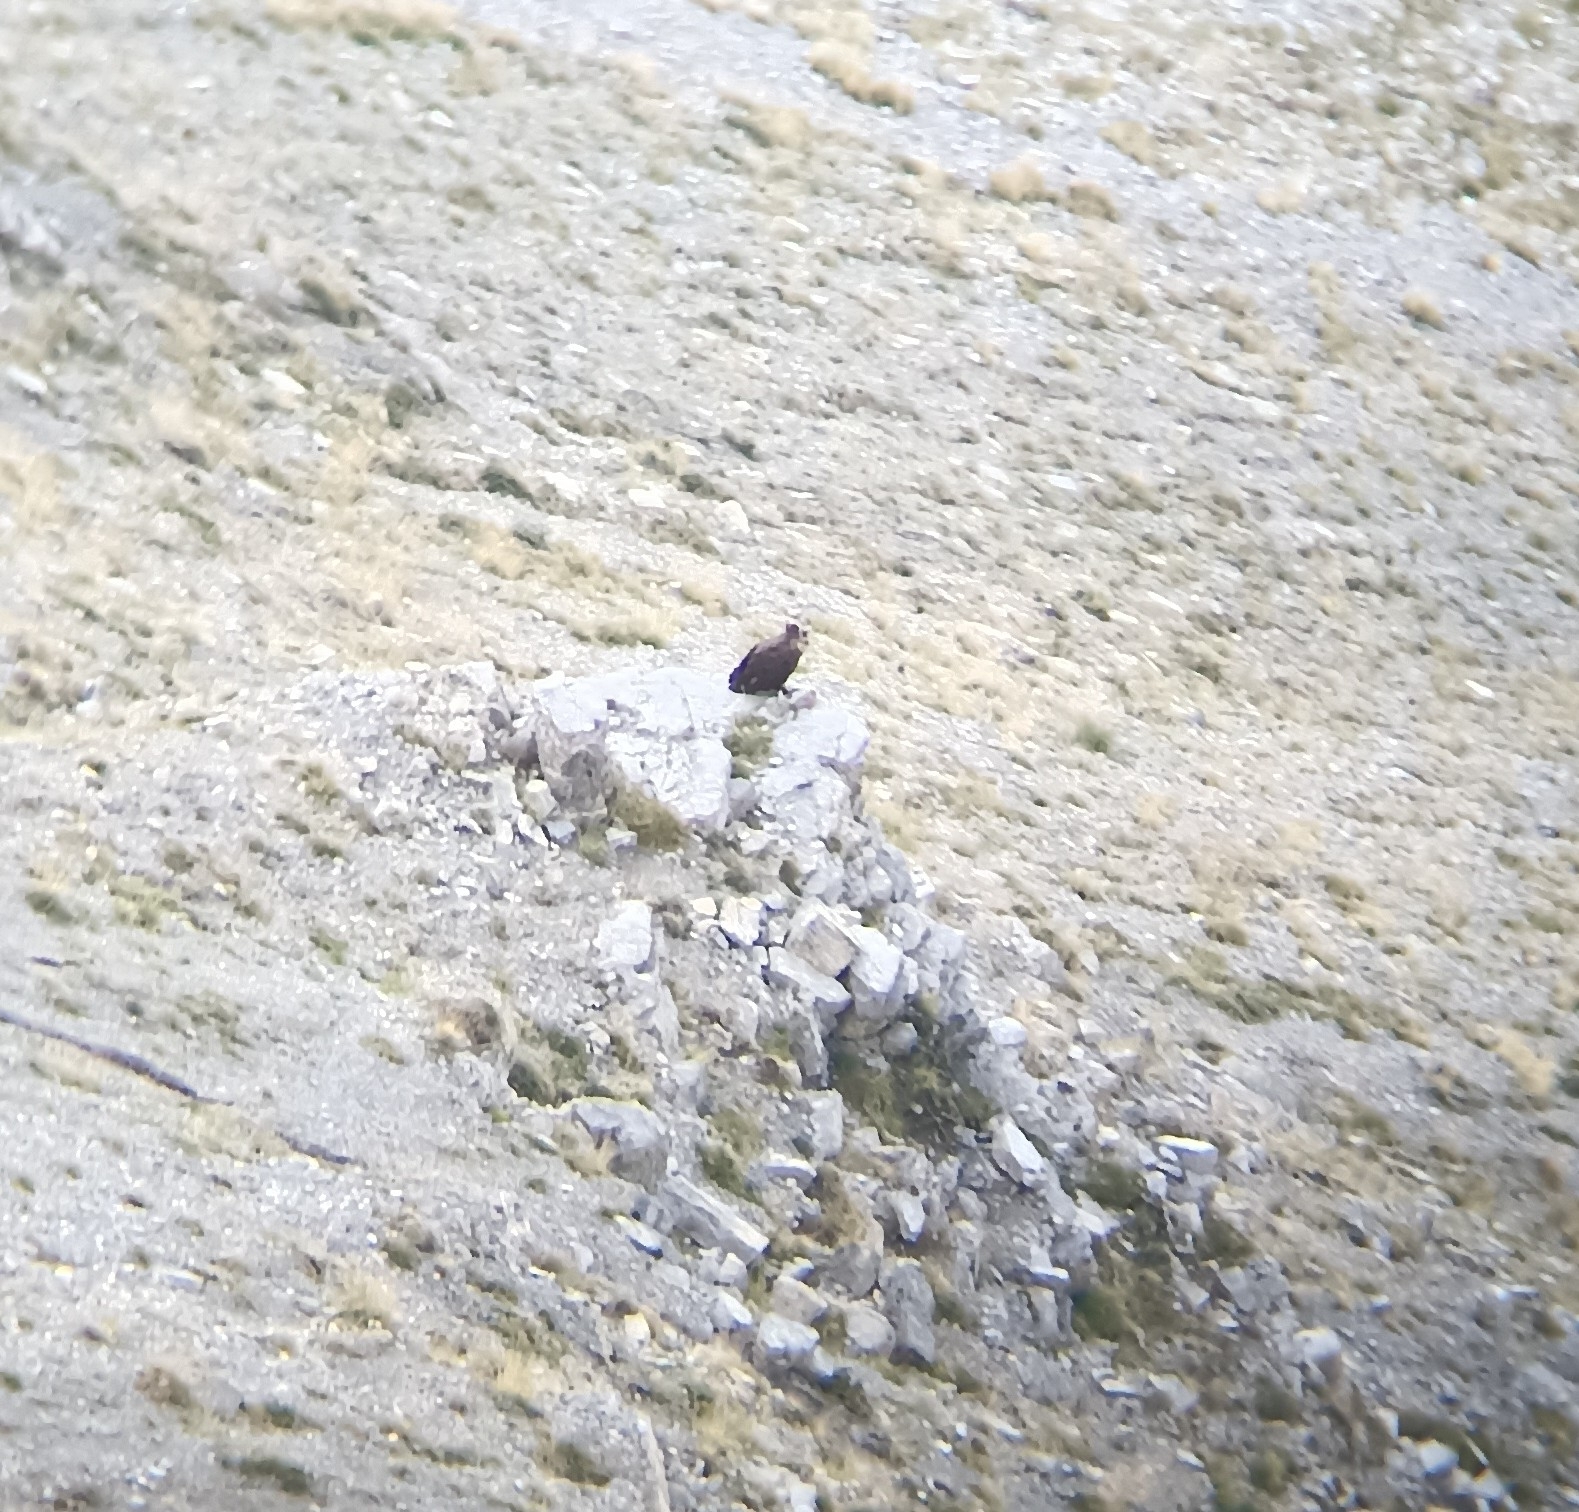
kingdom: Animalia
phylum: Chordata
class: Aves
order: Accipitriformes
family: Accipitridae
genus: Aegypius
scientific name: Aegypius monachus
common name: Cinereous vulture
